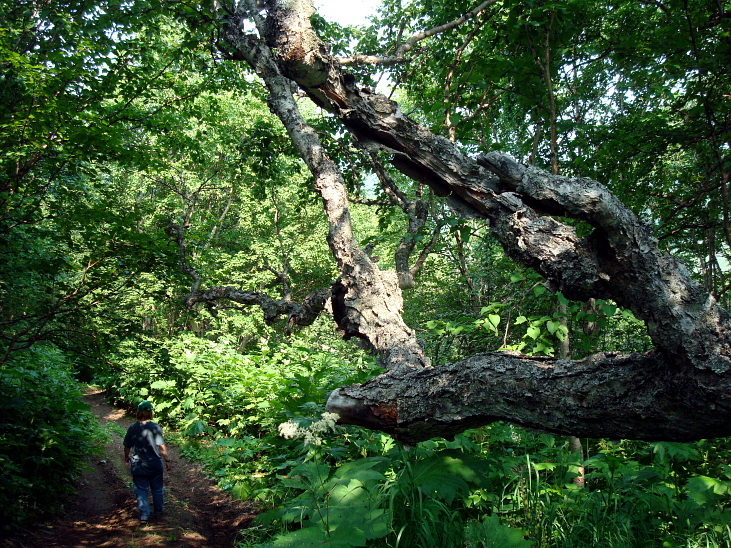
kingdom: Plantae
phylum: Tracheophyta
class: Magnoliopsida
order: Fagales
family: Betulaceae
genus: Betula
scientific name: Betula ermanii
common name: Erman's birch
